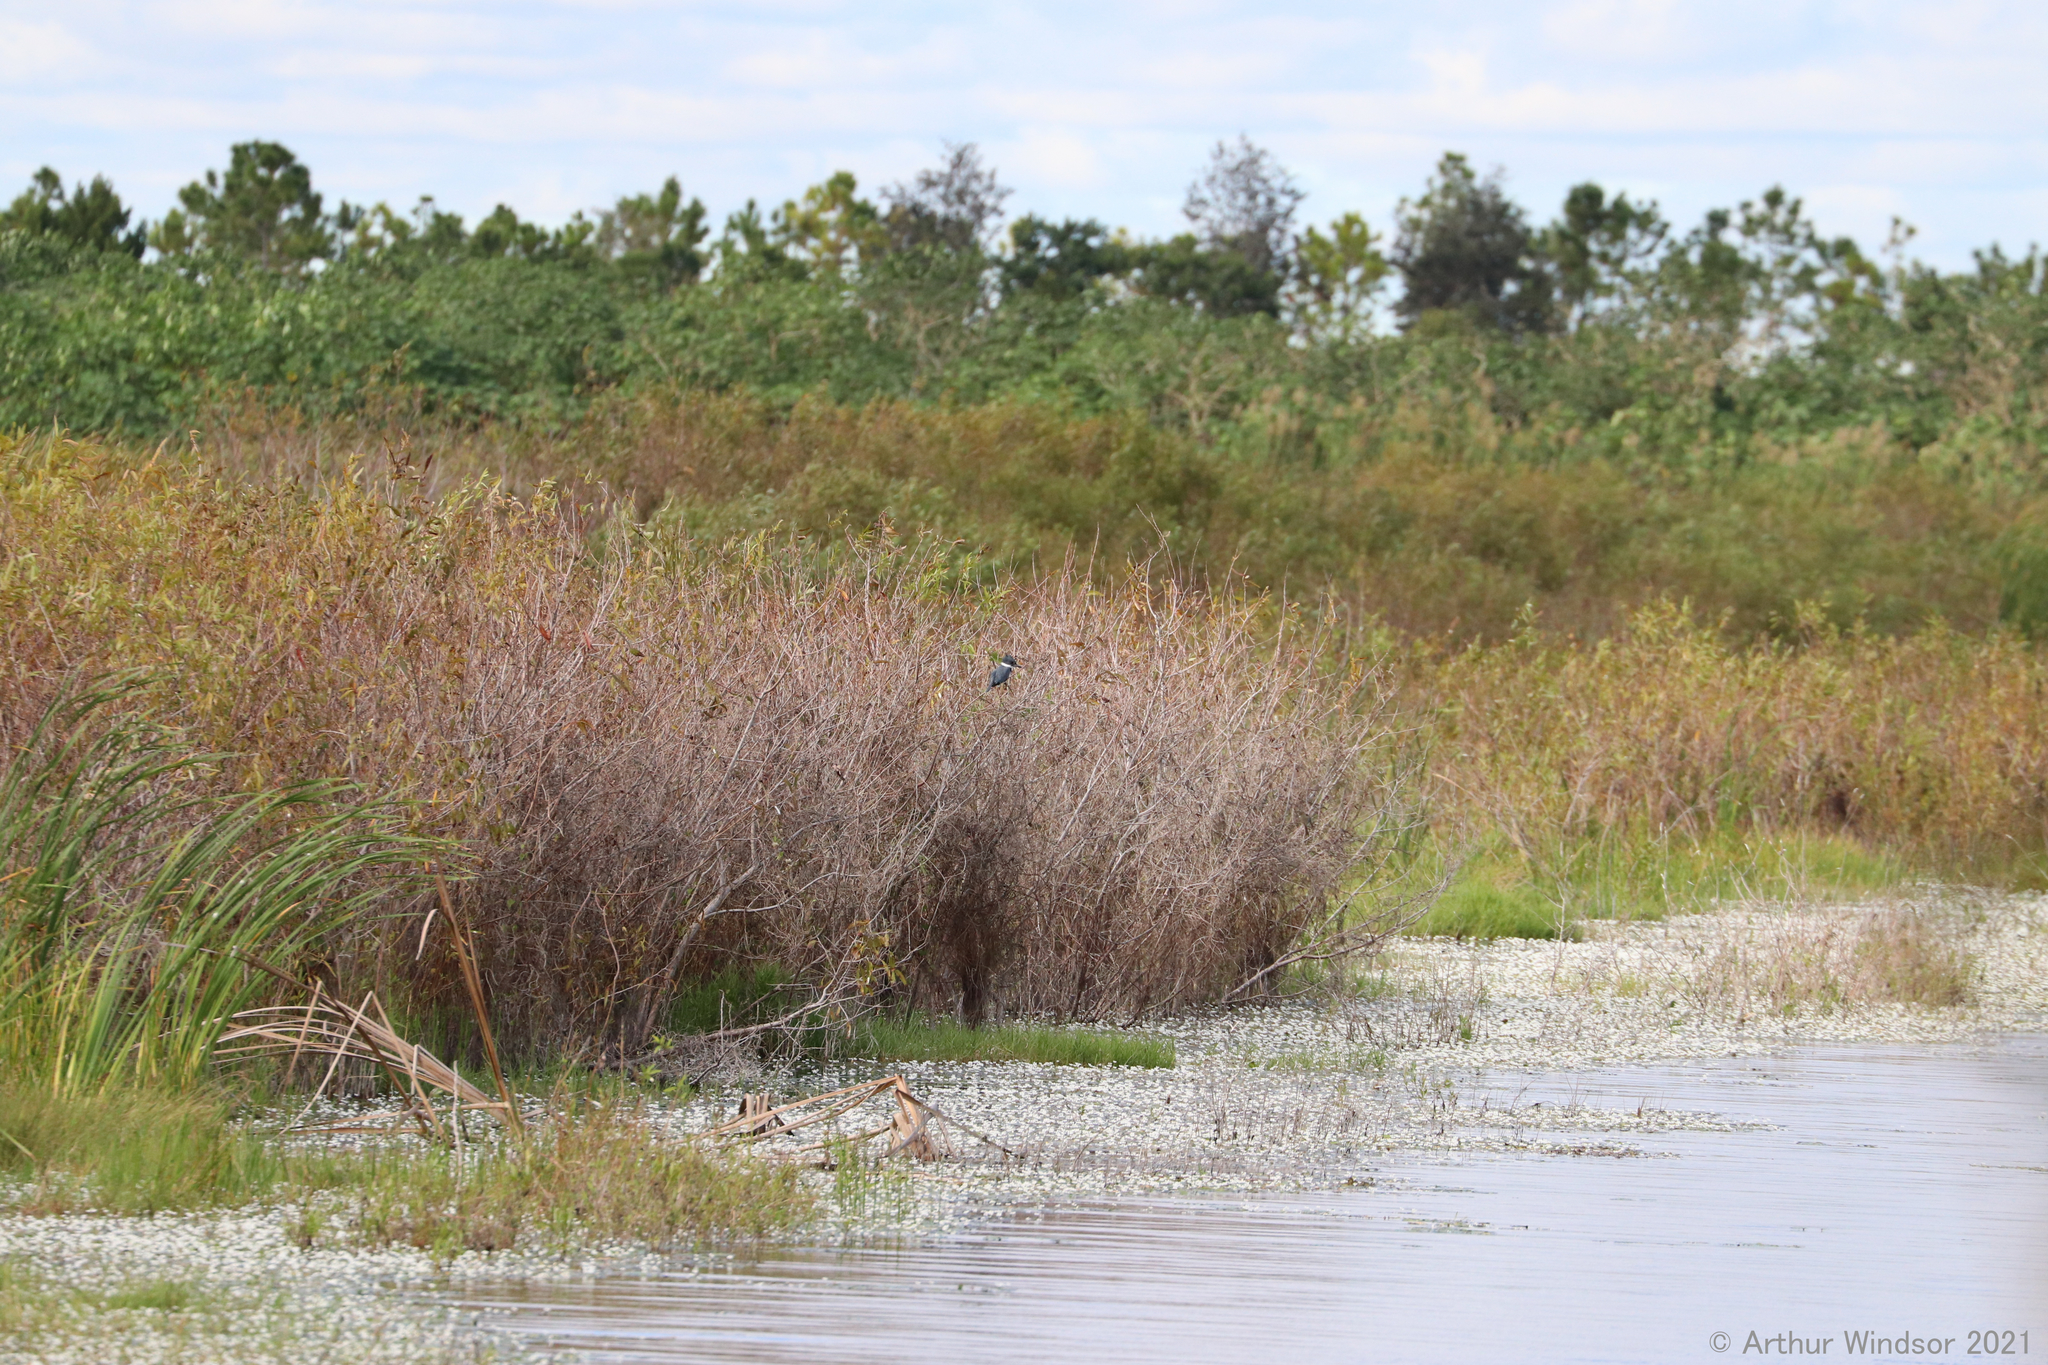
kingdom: Animalia
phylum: Chordata
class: Aves
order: Coraciiformes
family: Alcedinidae
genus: Megaceryle
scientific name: Megaceryle alcyon
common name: Belted kingfisher
